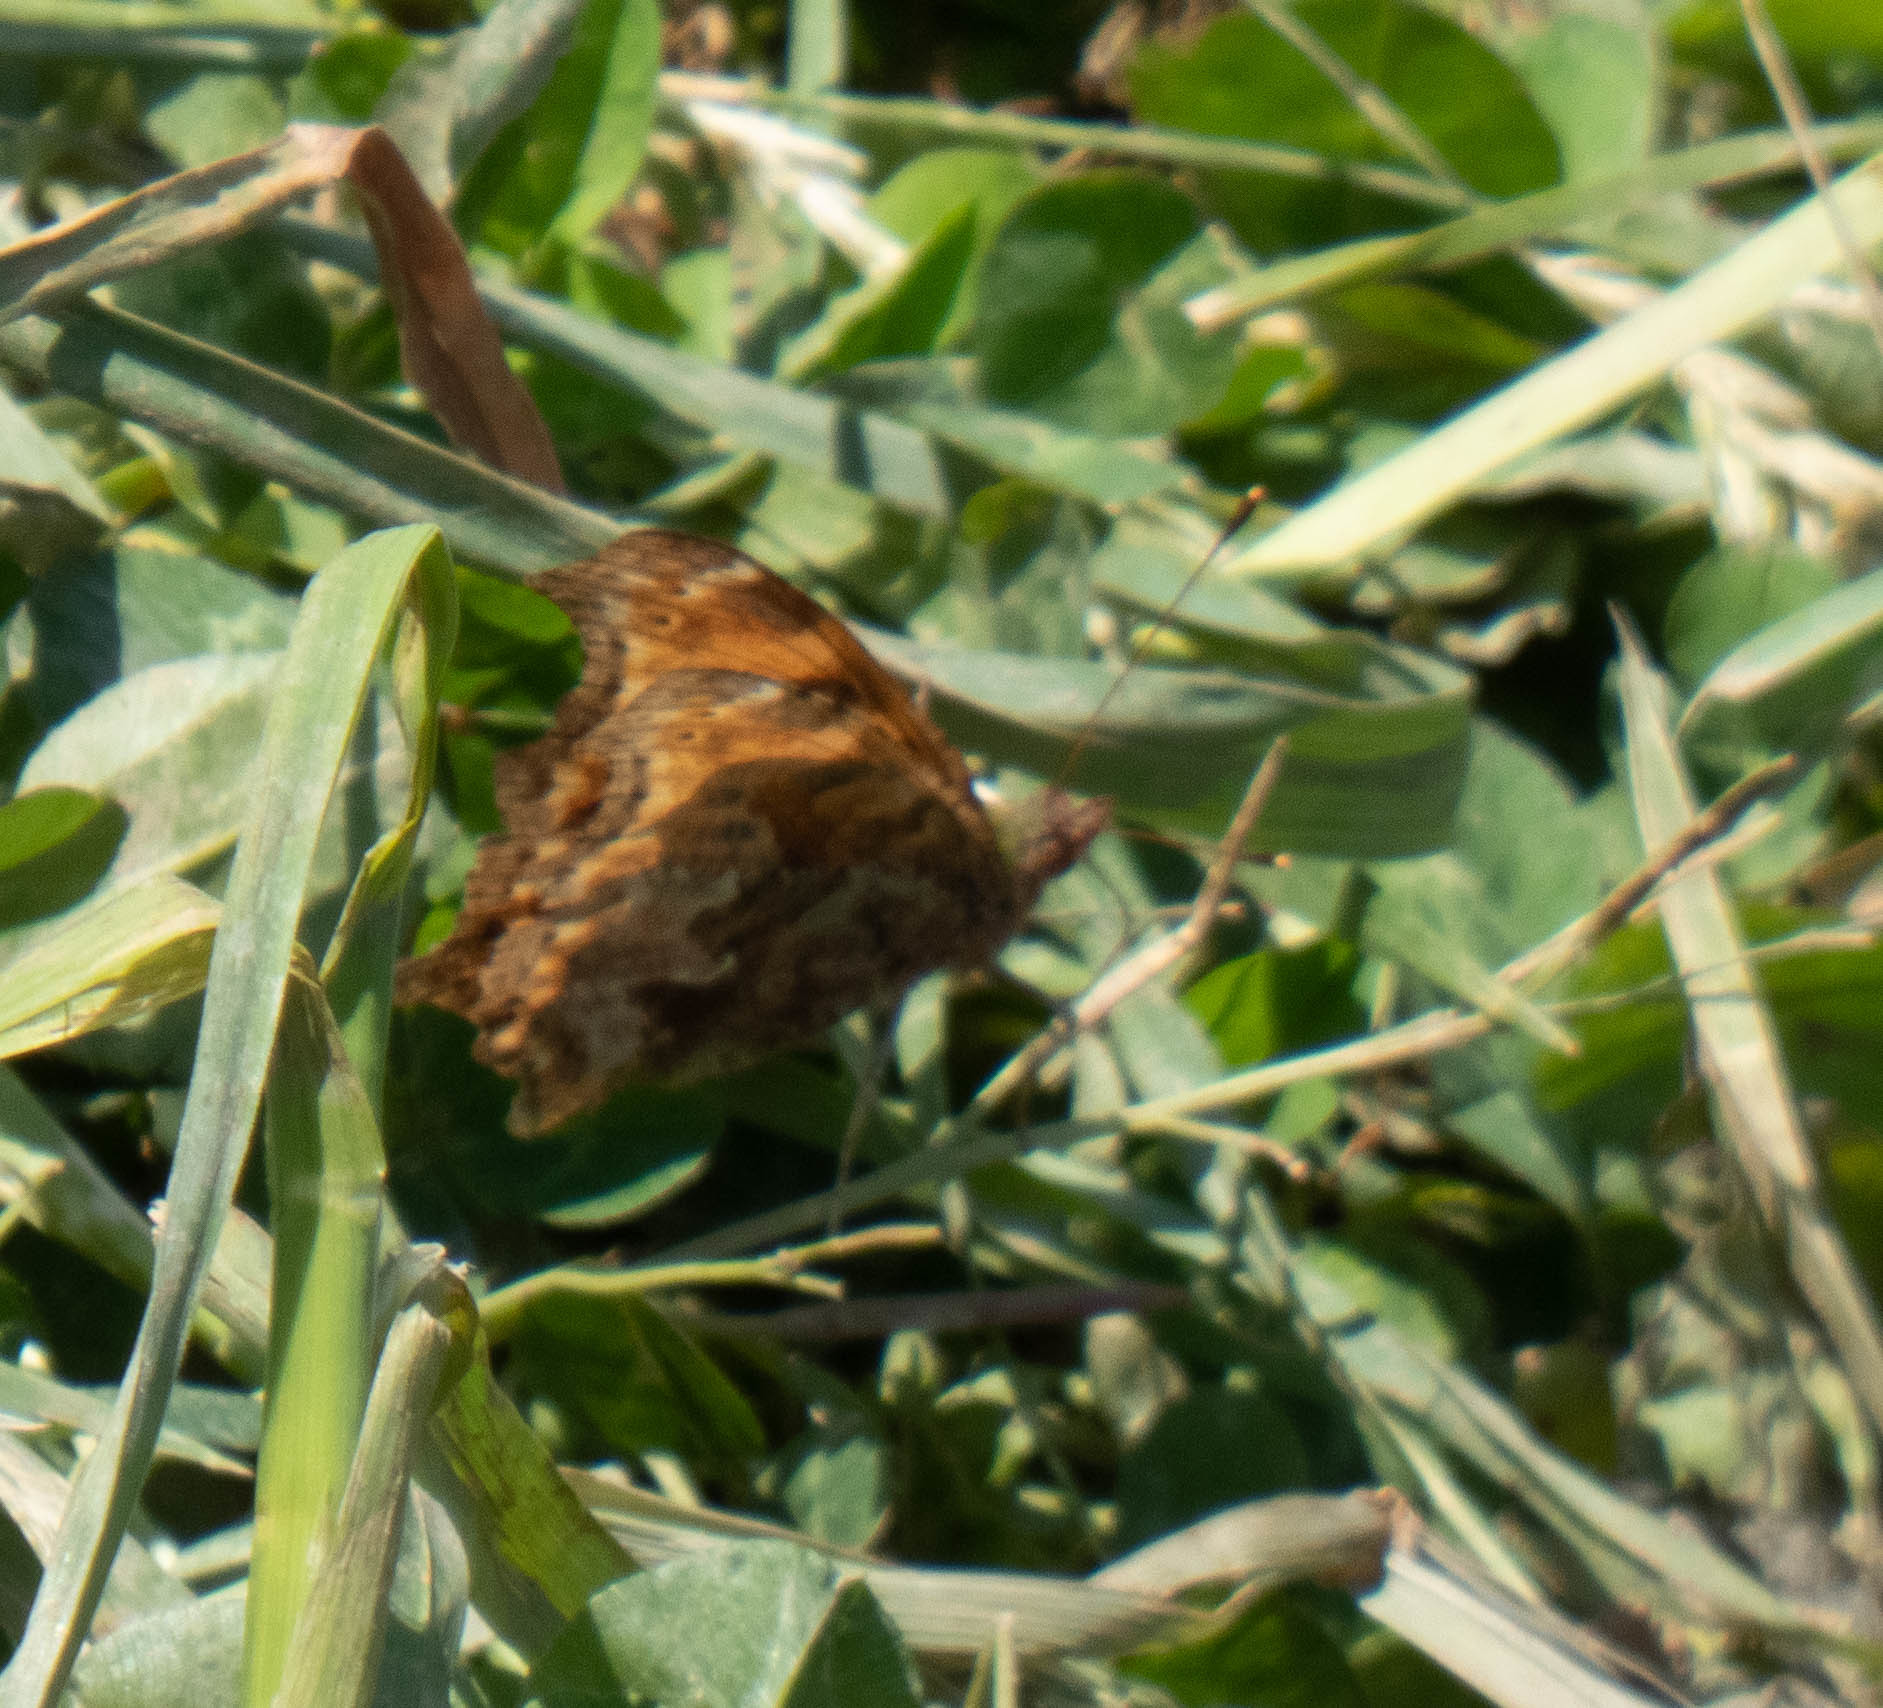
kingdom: Animalia
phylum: Arthropoda
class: Insecta
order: Lepidoptera
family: Nymphalidae
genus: Polygonia
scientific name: Polygonia comma
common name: Eastern comma
